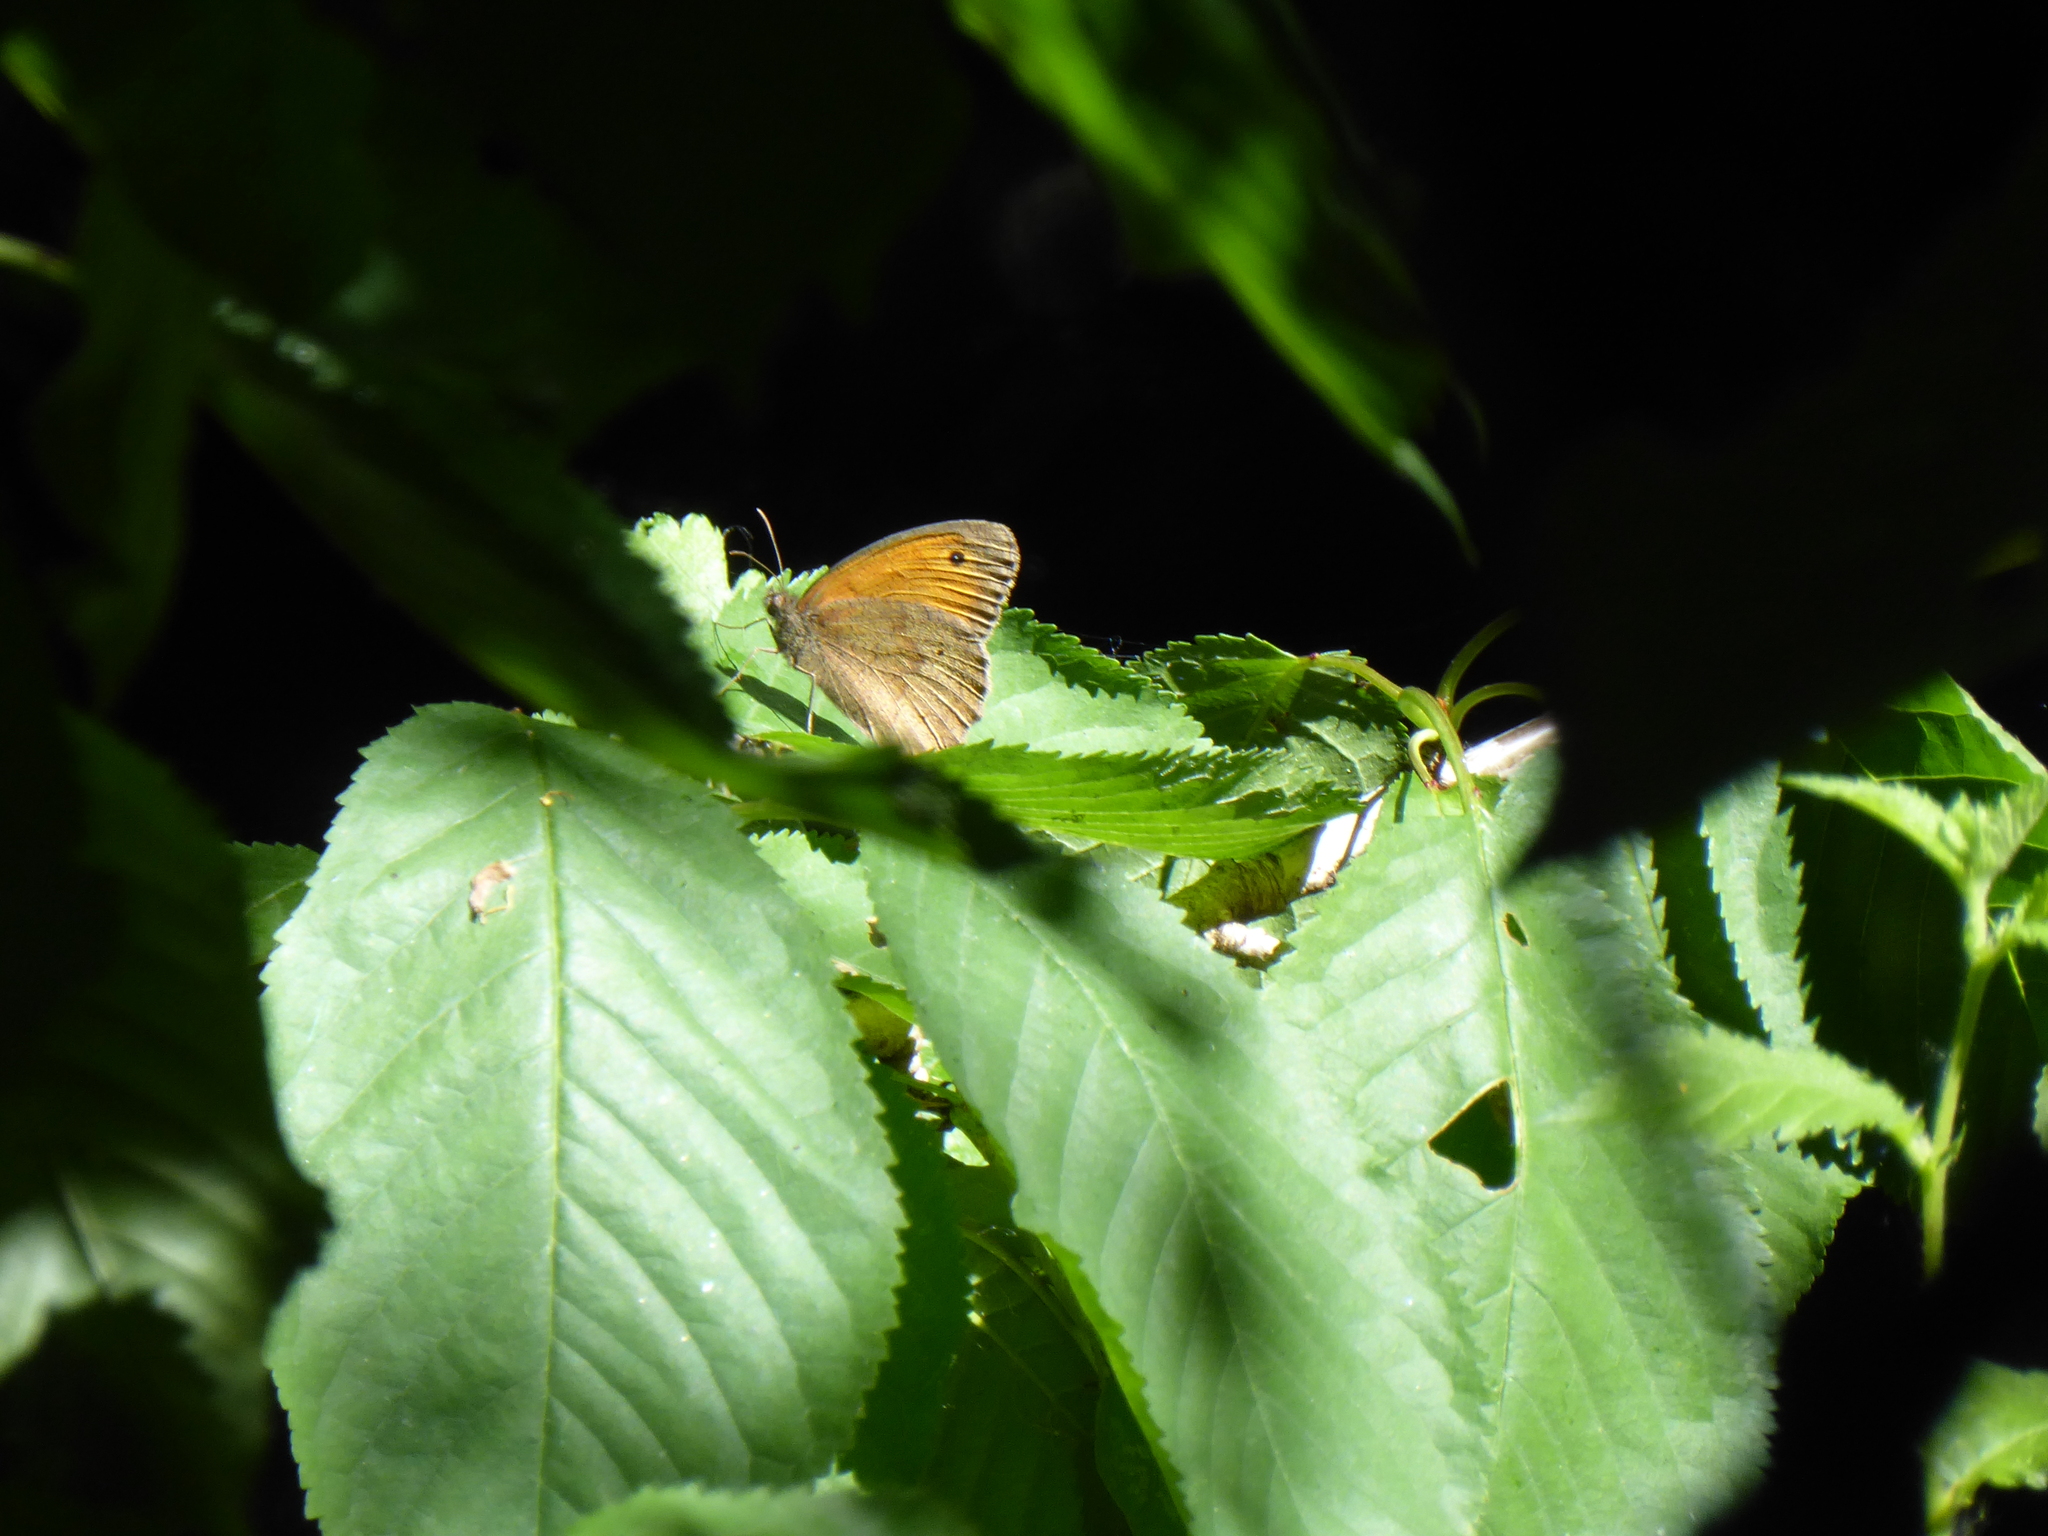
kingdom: Animalia
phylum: Arthropoda
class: Insecta
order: Lepidoptera
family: Nymphalidae
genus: Maniola
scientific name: Maniola jurtina
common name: Meadow brown
